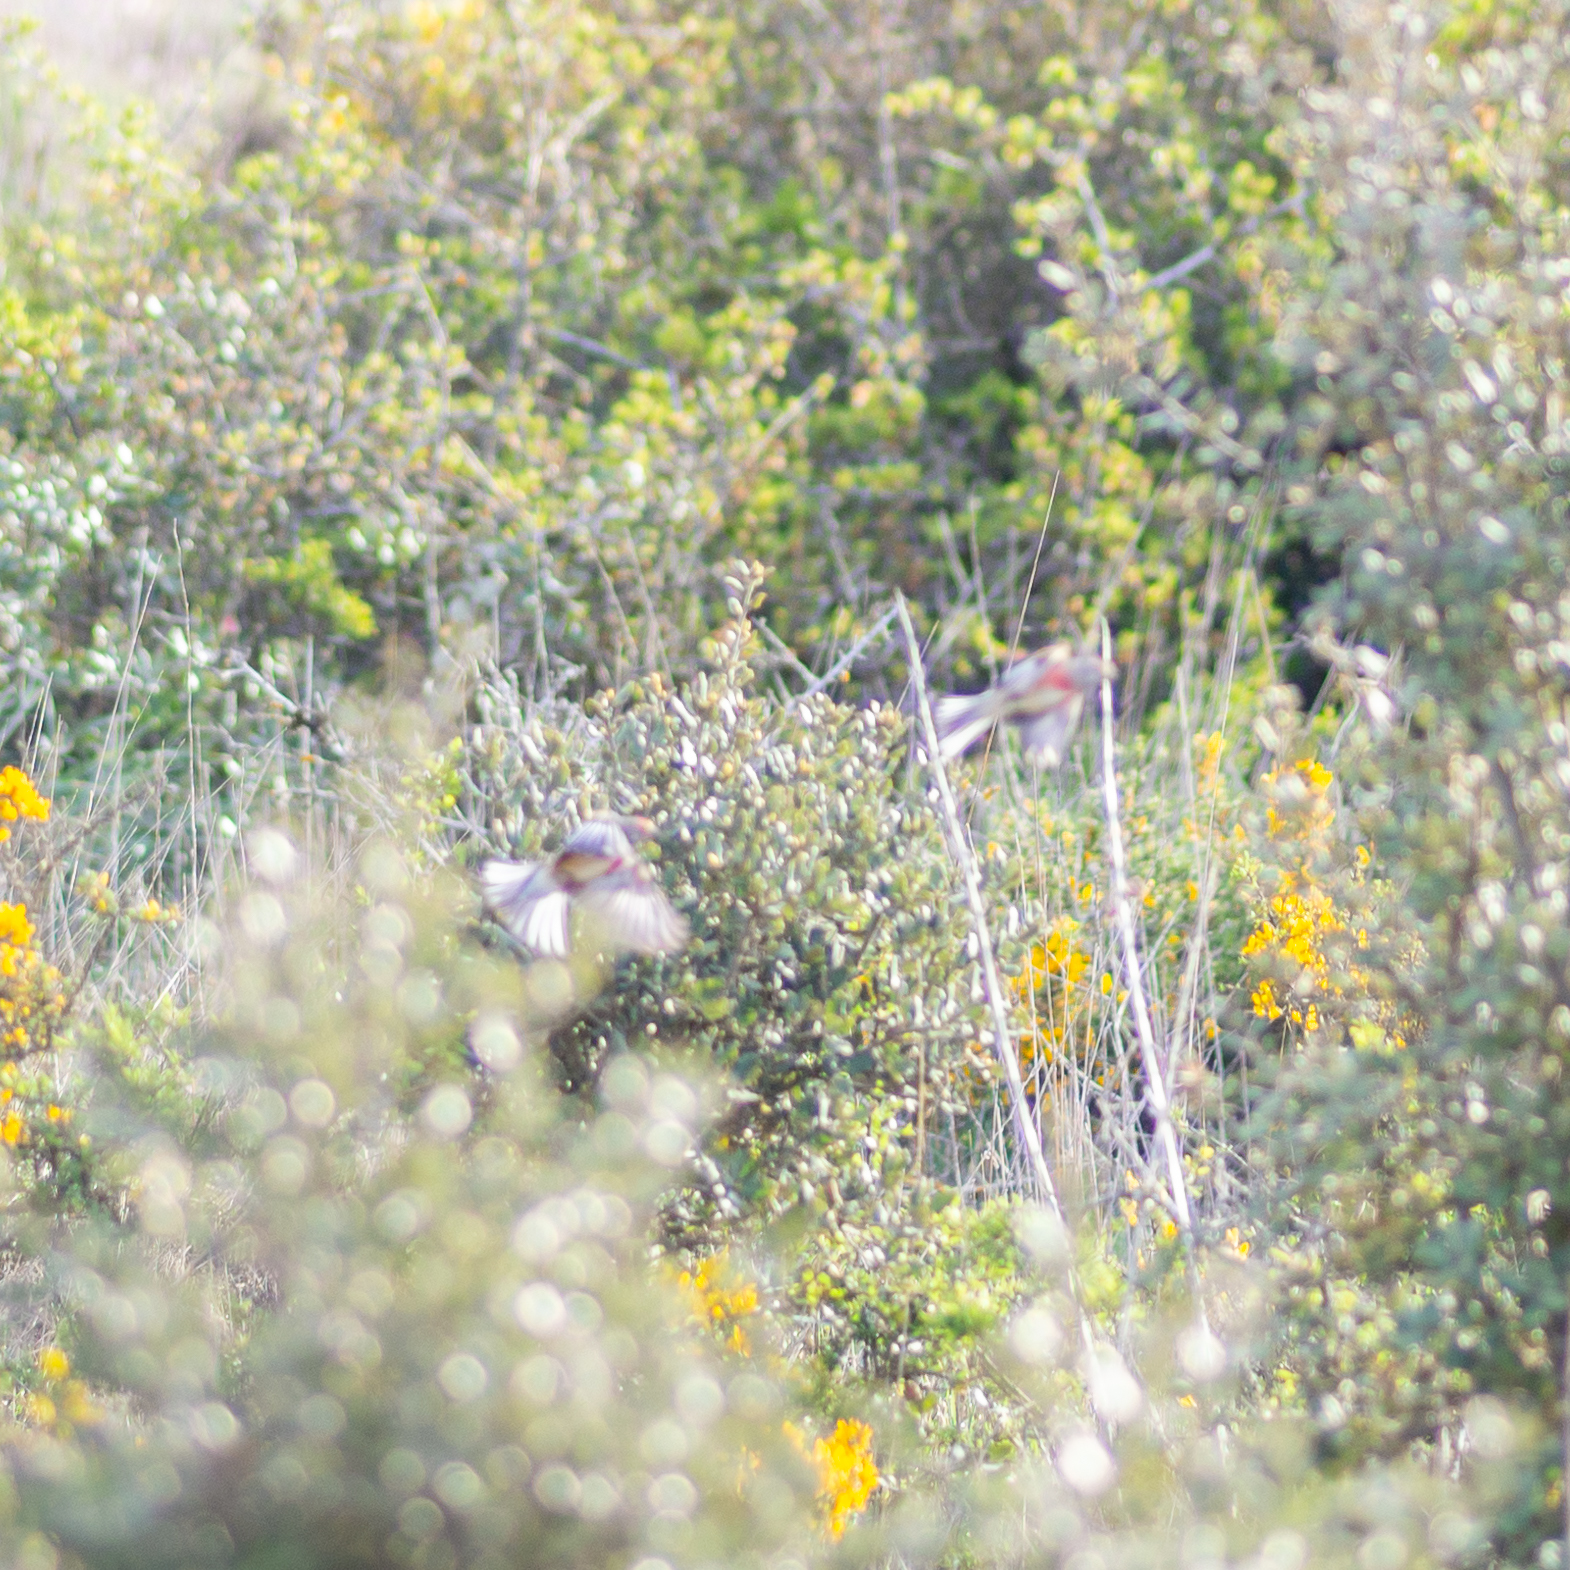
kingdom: Animalia
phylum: Chordata
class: Aves
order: Passeriformes
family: Fringillidae
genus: Linaria
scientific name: Linaria cannabina
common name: Common linnet
